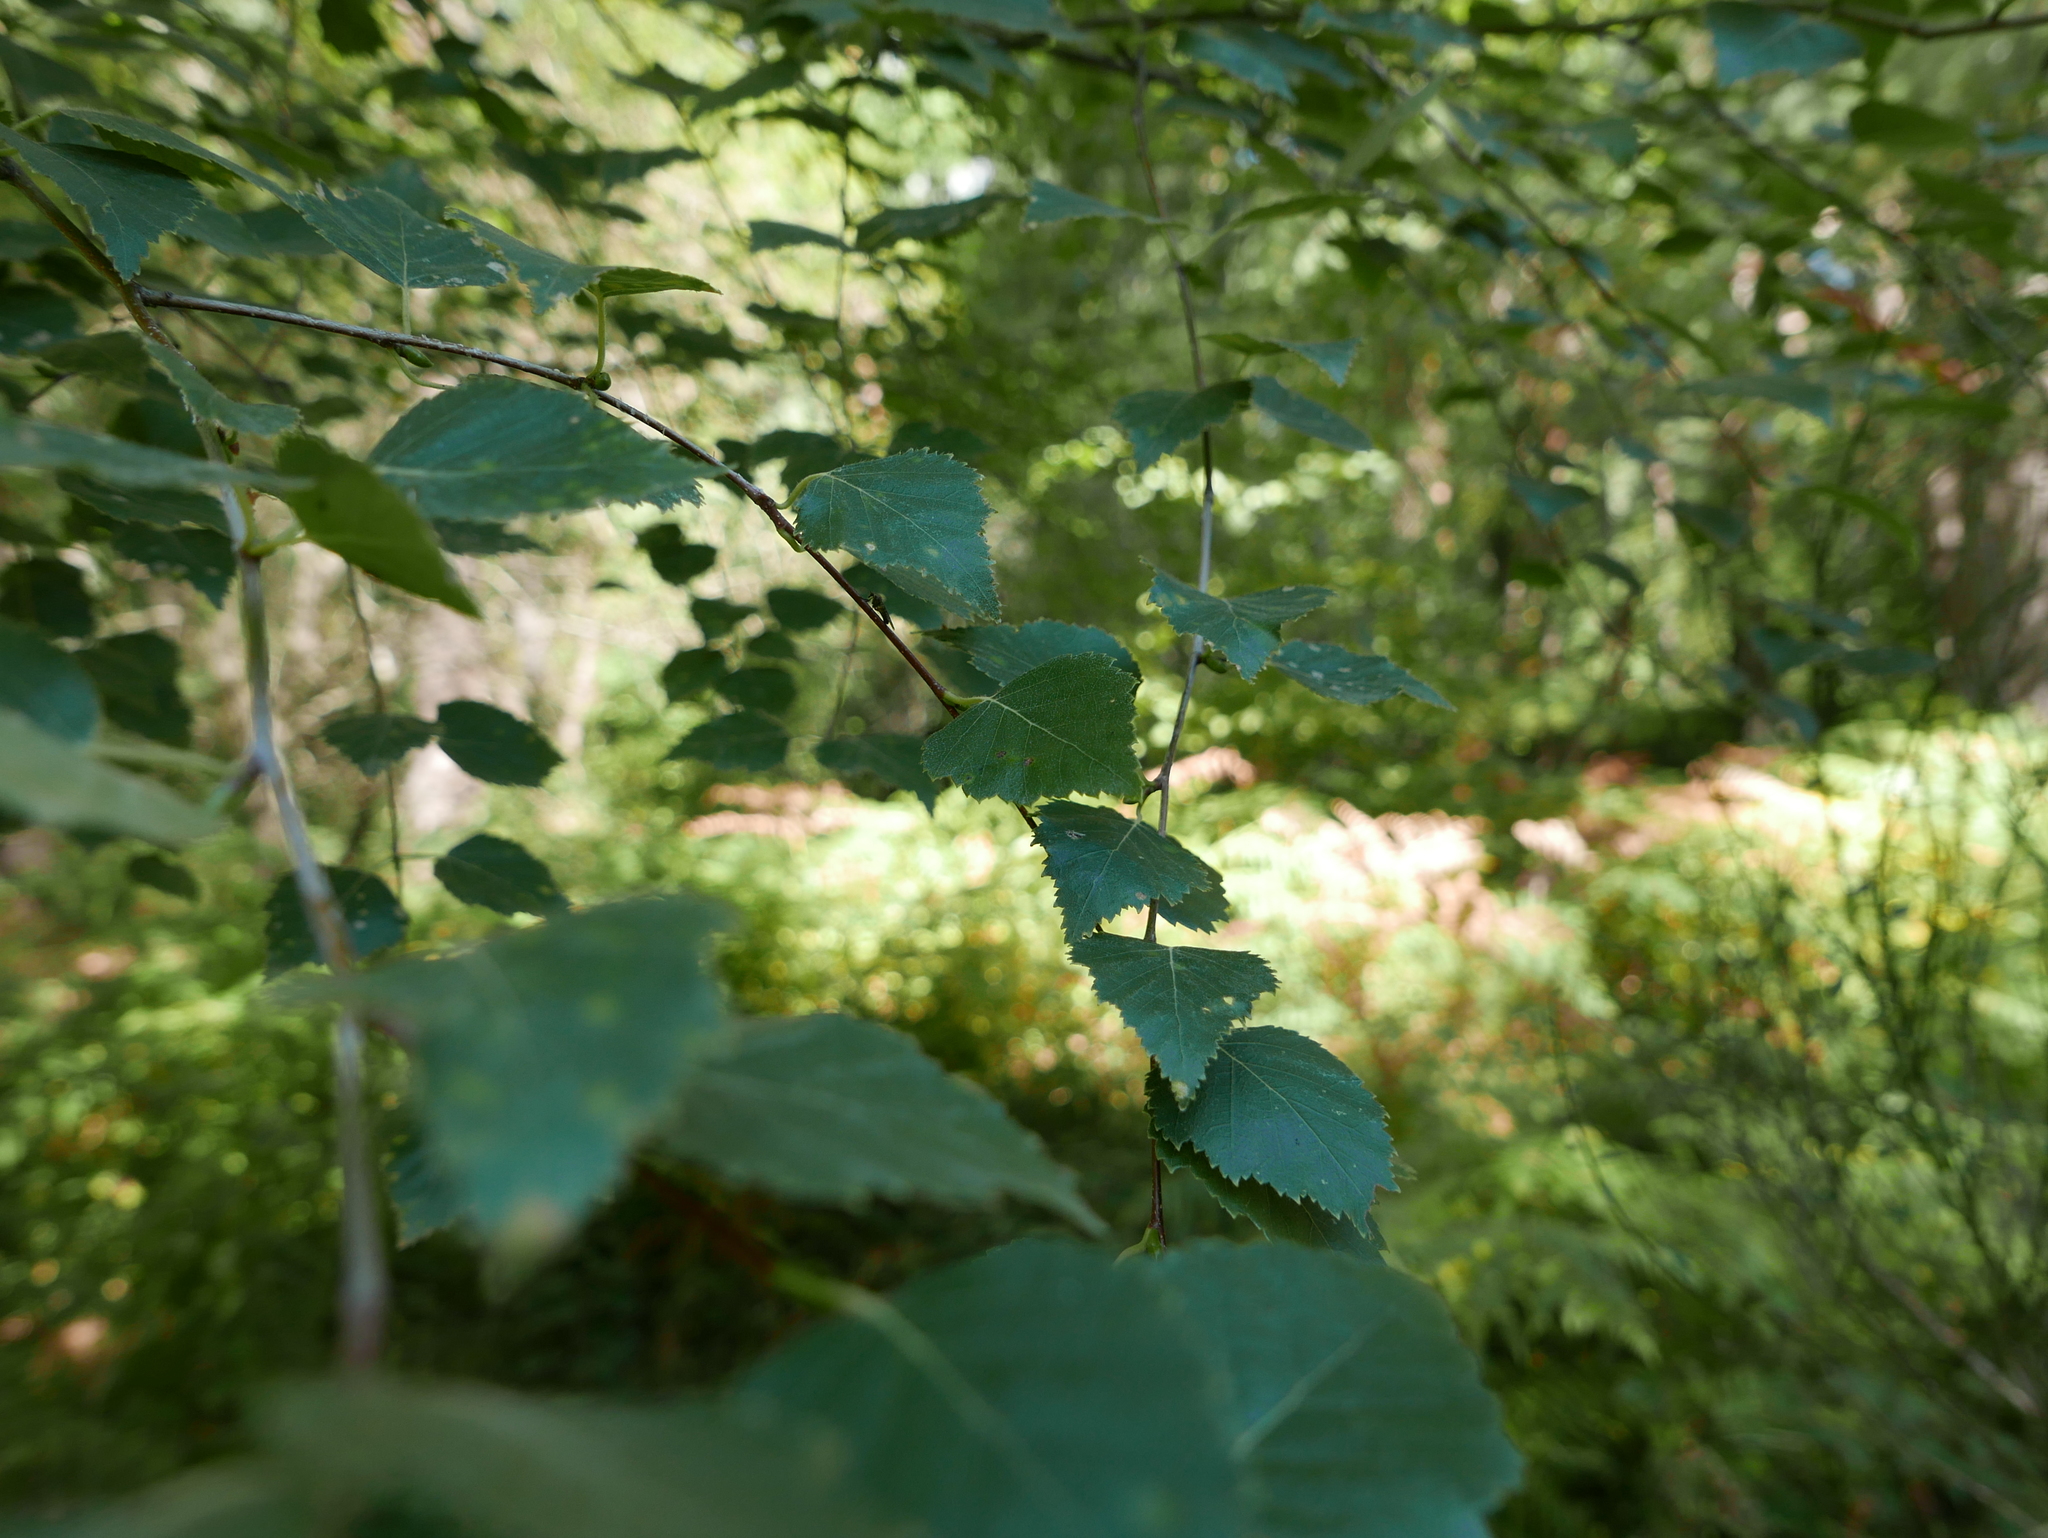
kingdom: Plantae
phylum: Tracheophyta
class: Magnoliopsida
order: Fagales
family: Betulaceae
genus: Betula
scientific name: Betula pendula
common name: Silver birch
